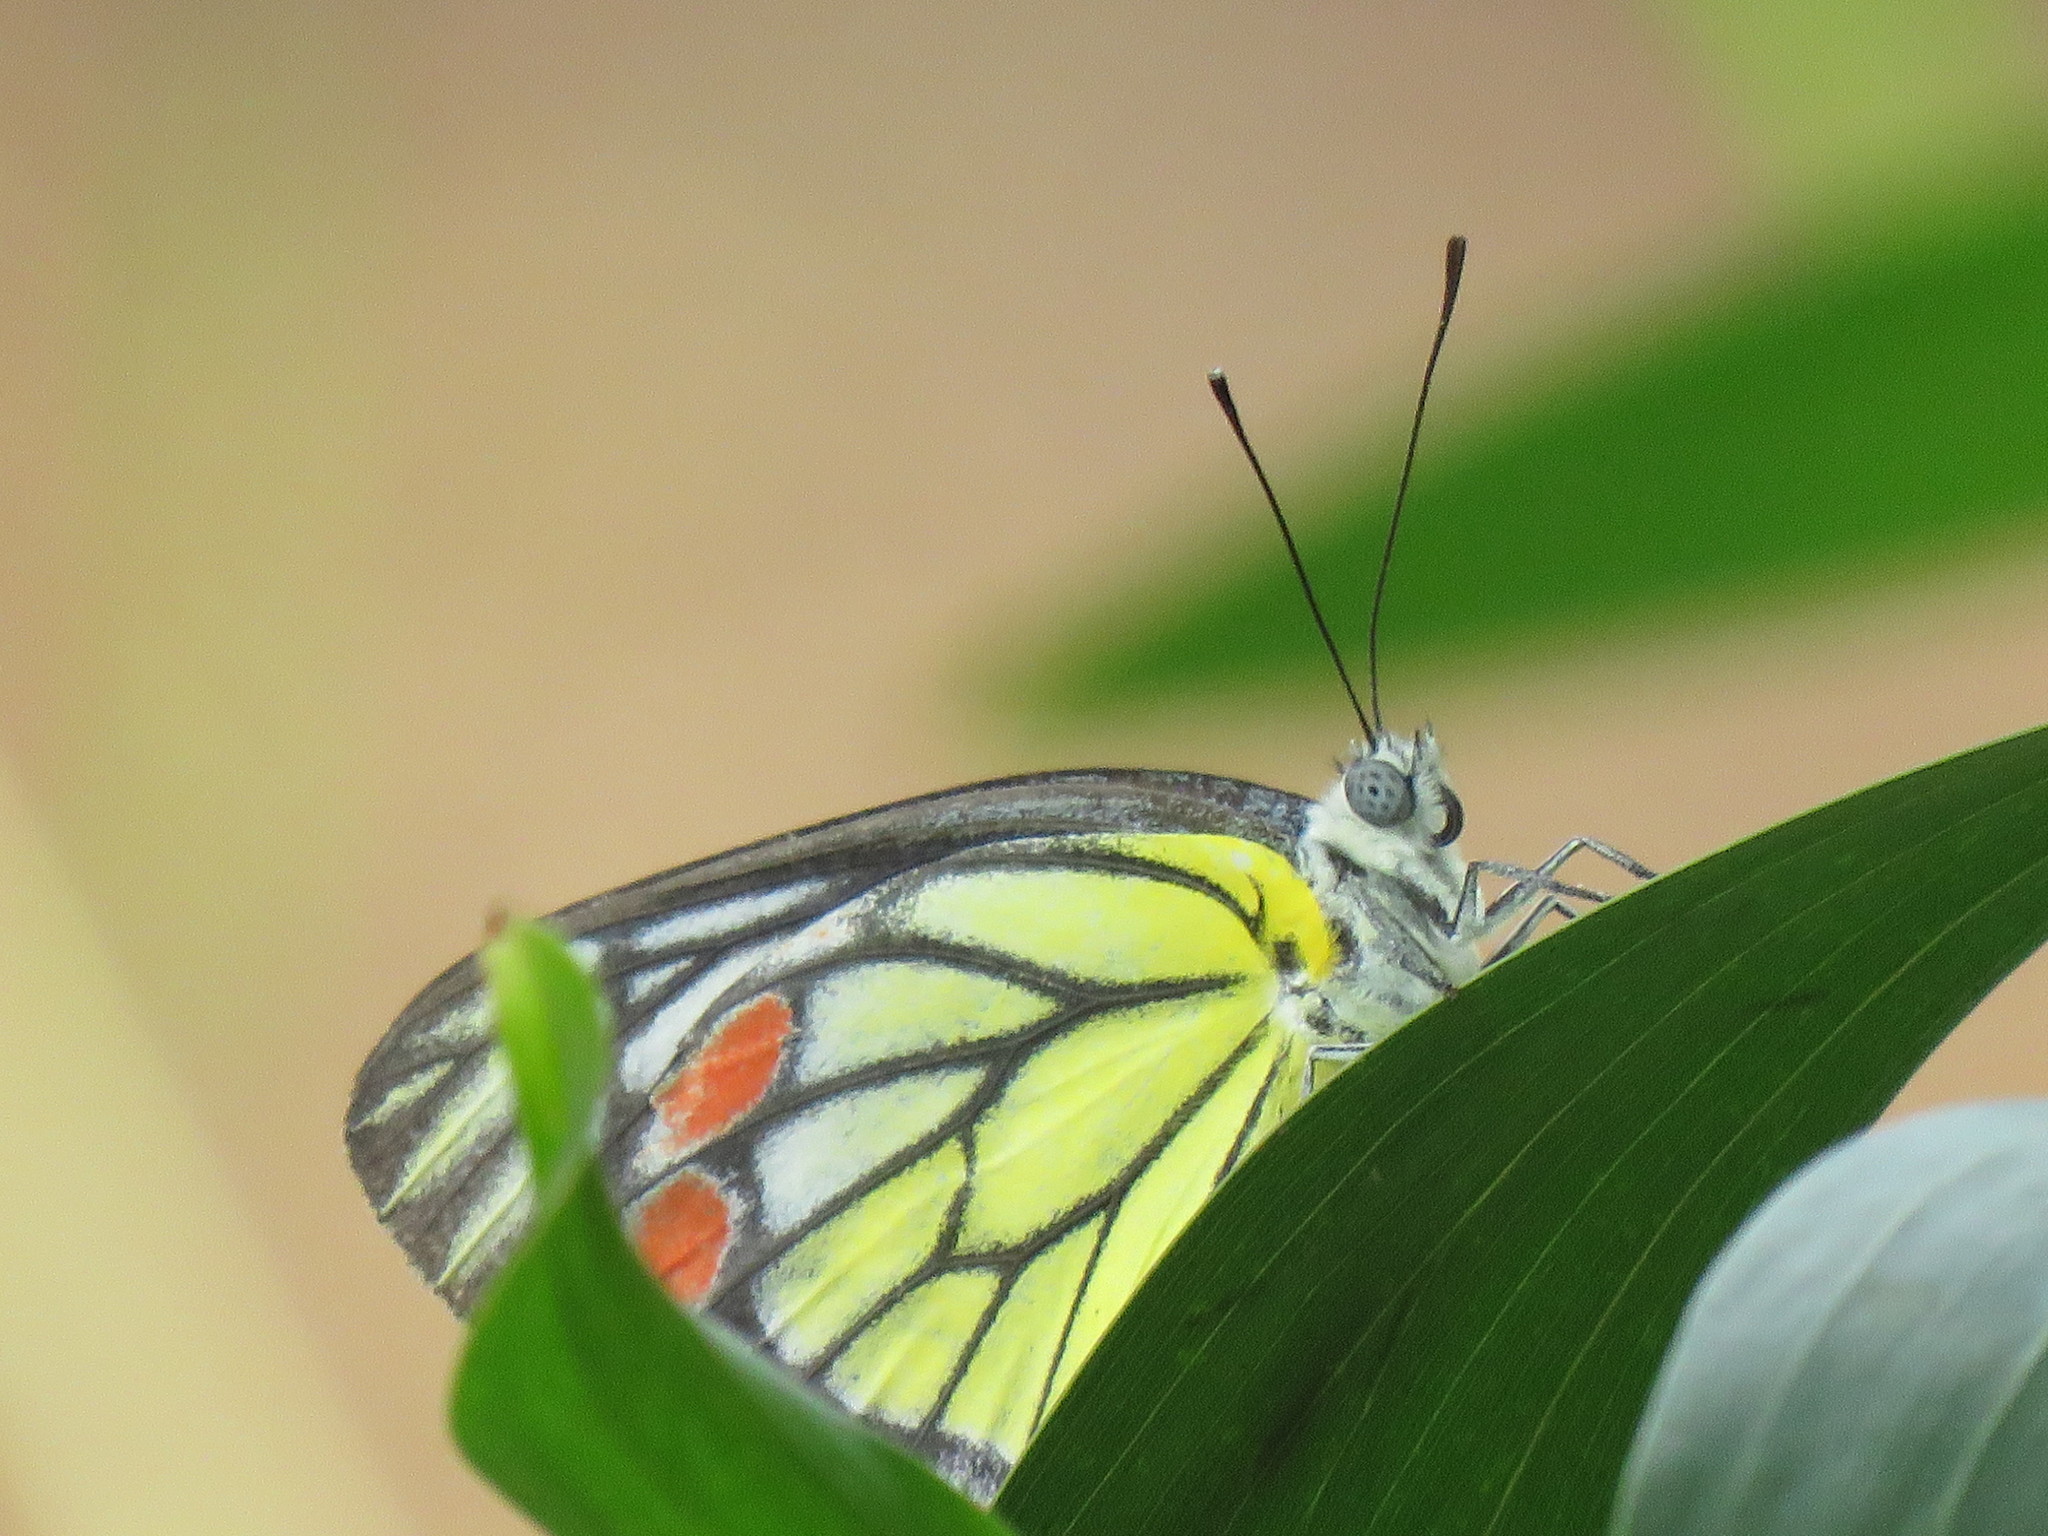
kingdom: Animalia
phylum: Arthropoda
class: Insecta
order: Lepidoptera
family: Pieridae
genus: Delias
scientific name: Delias eucharis
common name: Common jezebel
